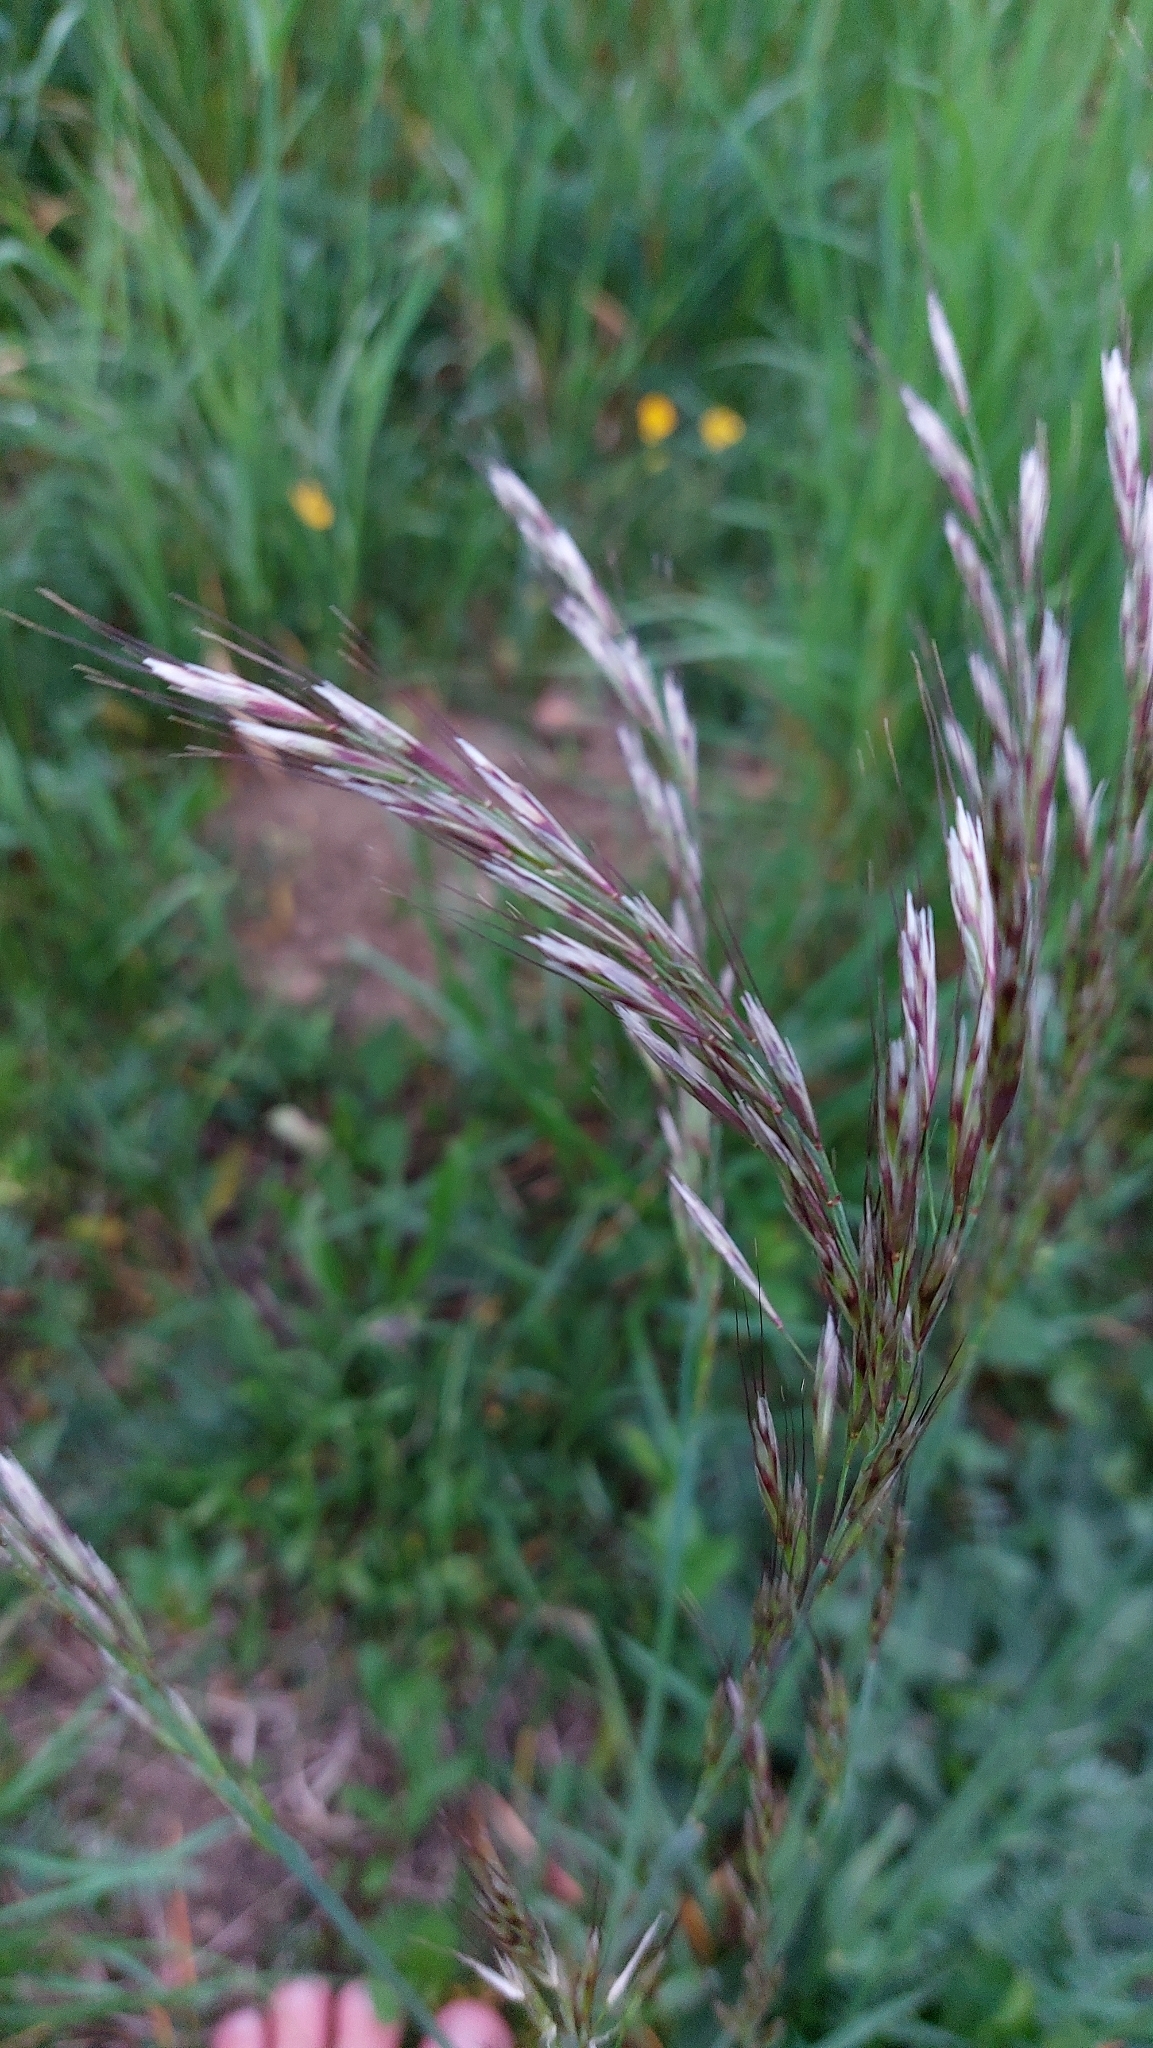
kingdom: Plantae
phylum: Tracheophyta
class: Liliopsida
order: Poales
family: Poaceae
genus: Avenula
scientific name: Avenula pubescens
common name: Downy alpine oatgrass
